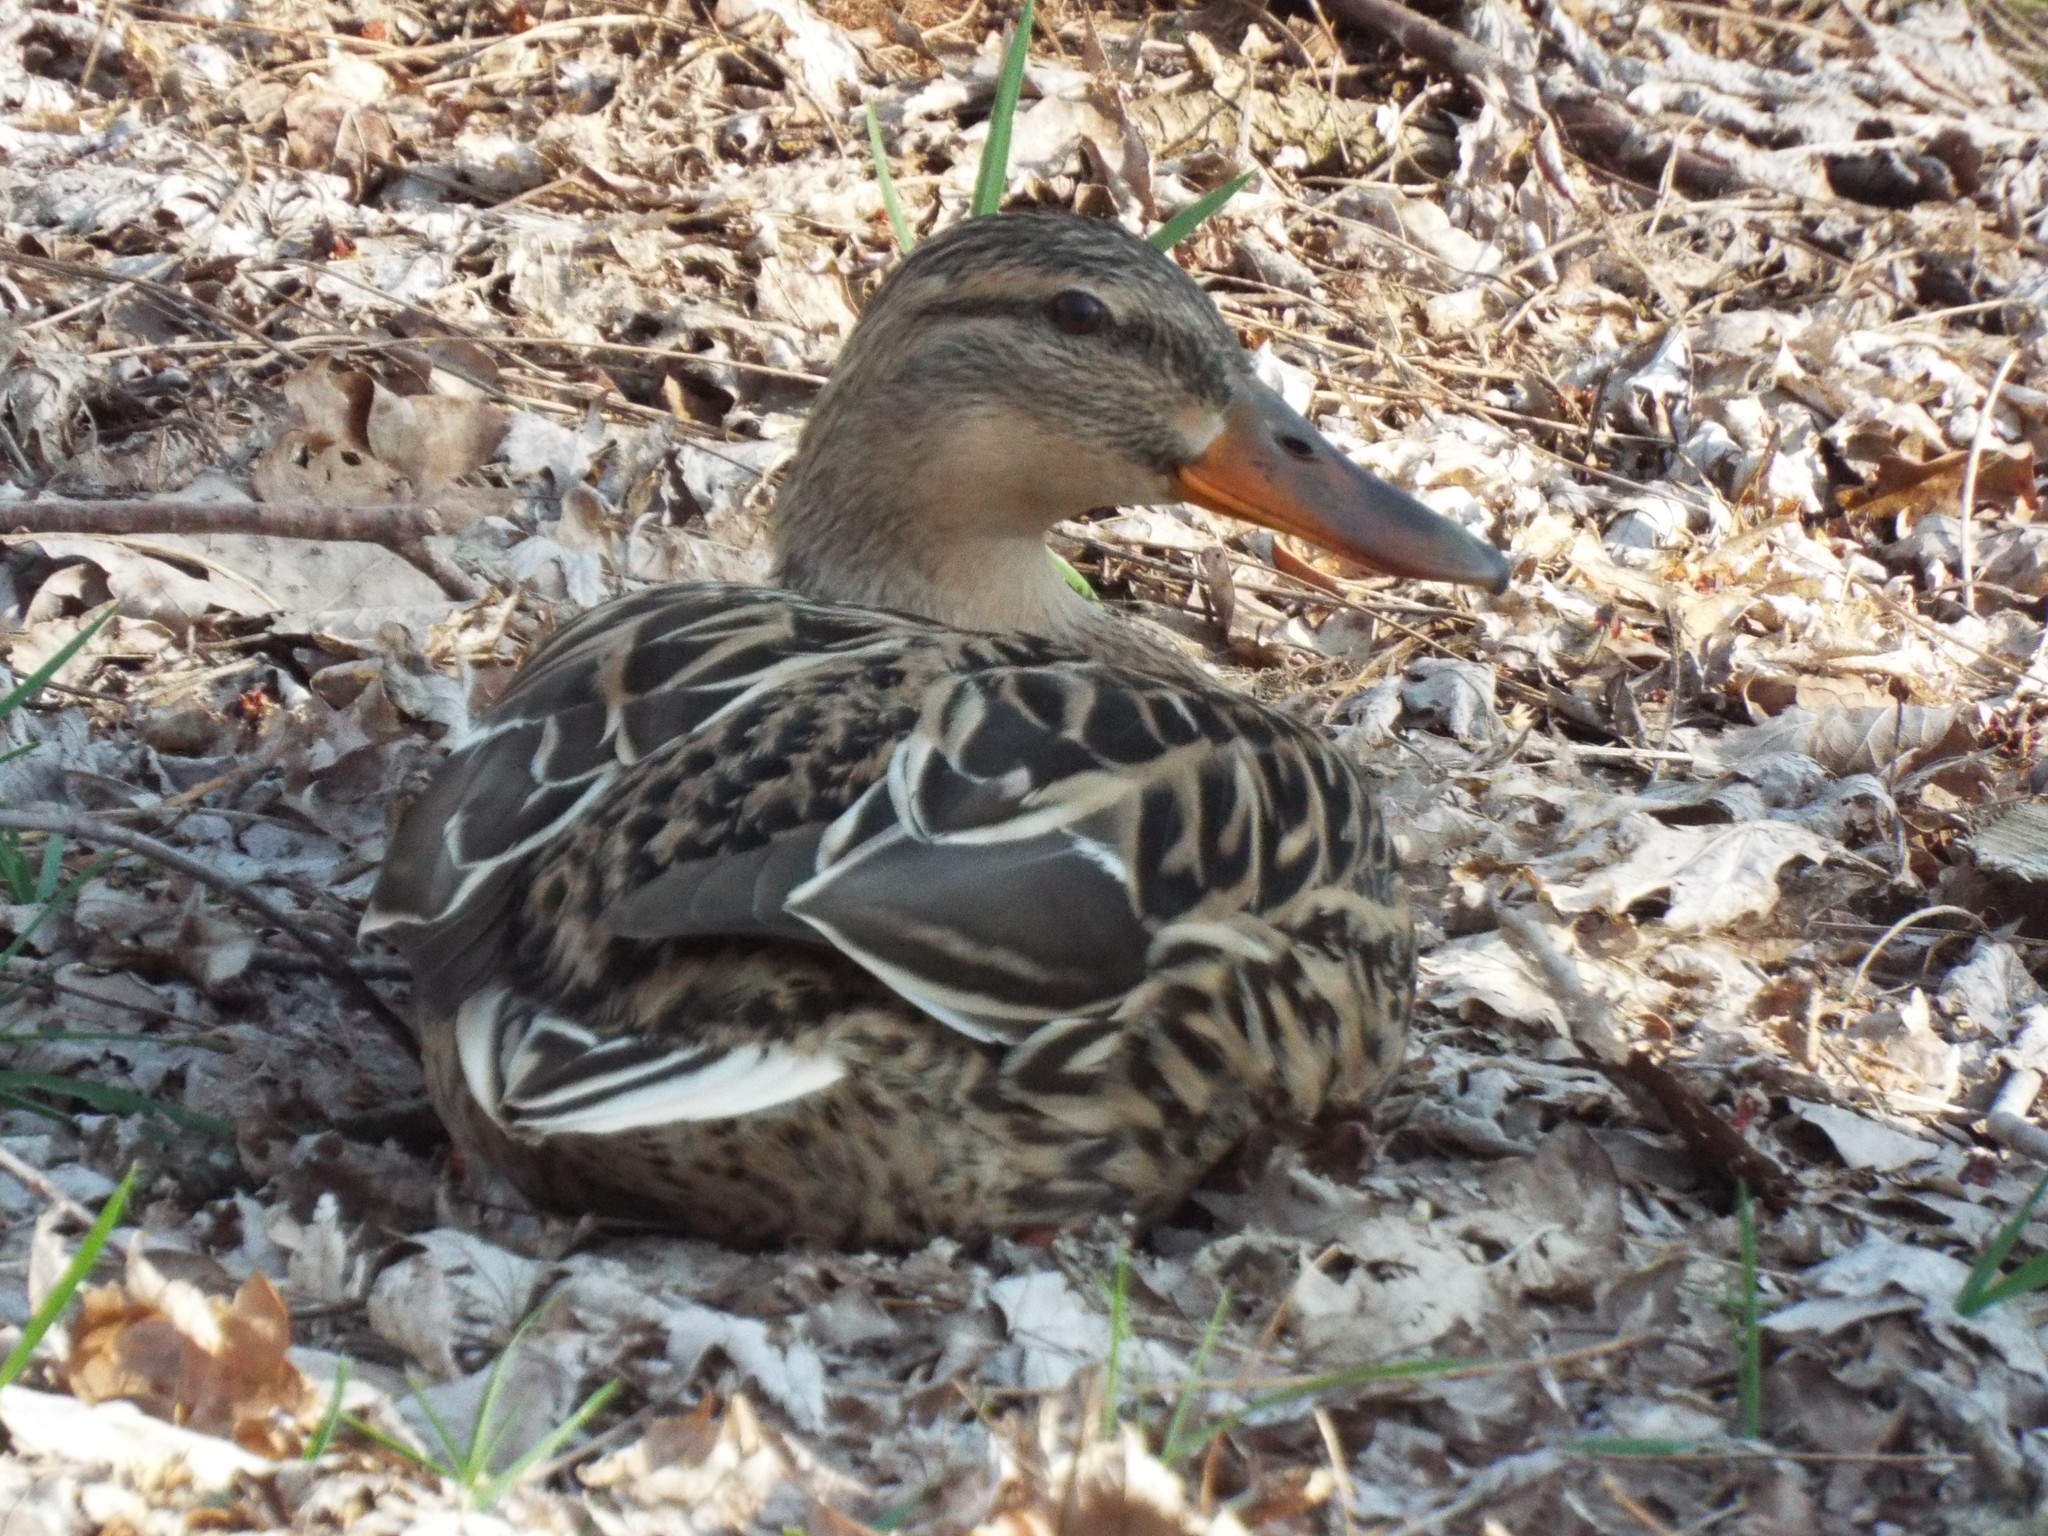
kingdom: Animalia
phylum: Chordata
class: Aves
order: Anseriformes
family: Anatidae
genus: Anas
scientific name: Anas platyrhynchos
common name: Mallard
